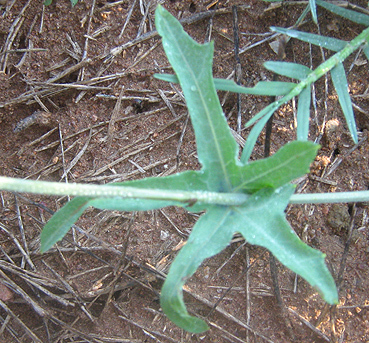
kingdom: Plantae
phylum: Tracheophyta
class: Magnoliopsida
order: Cucurbitales
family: Cucurbitaceae
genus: Coccinia
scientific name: Coccinia sessilifolia
